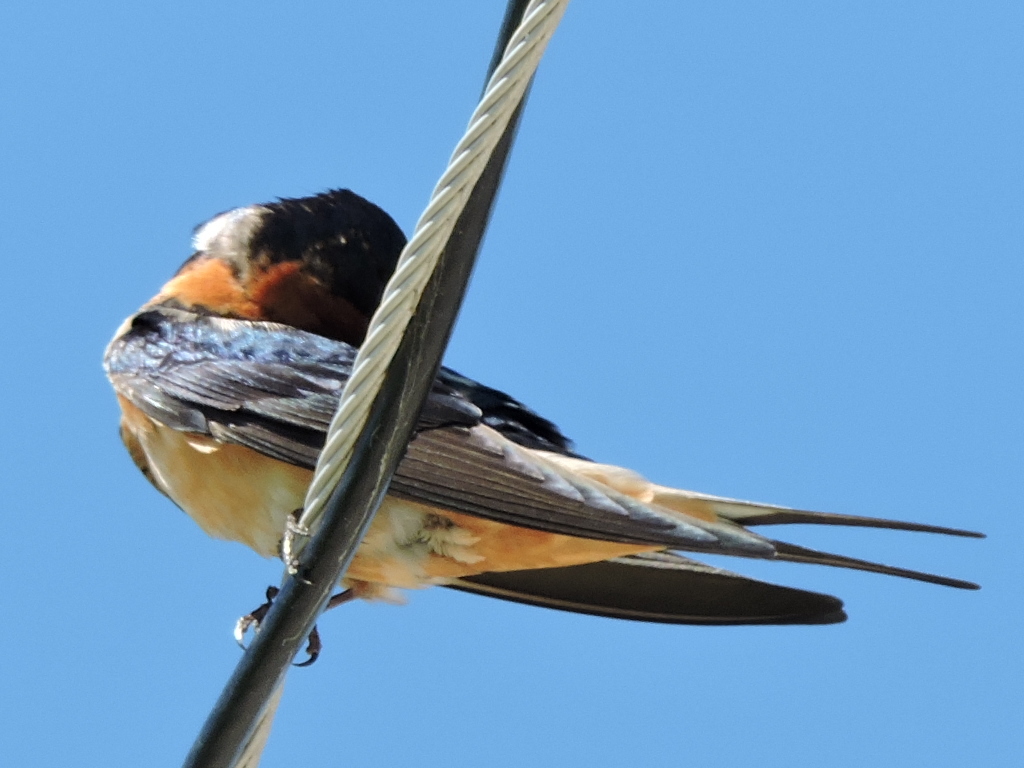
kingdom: Animalia
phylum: Chordata
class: Aves
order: Passeriformes
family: Hirundinidae
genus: Hirundo
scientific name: Hirundo rustica
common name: Barn swallow
